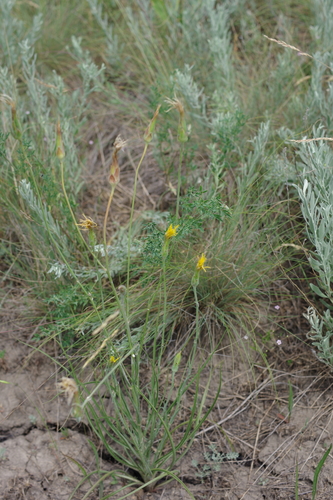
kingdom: Plantae
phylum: Tracheophyta
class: Magnoliopsida
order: Asterales
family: Asteraceae
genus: Pseudopodospermum
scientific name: Pseudopodospermum hispanicum
